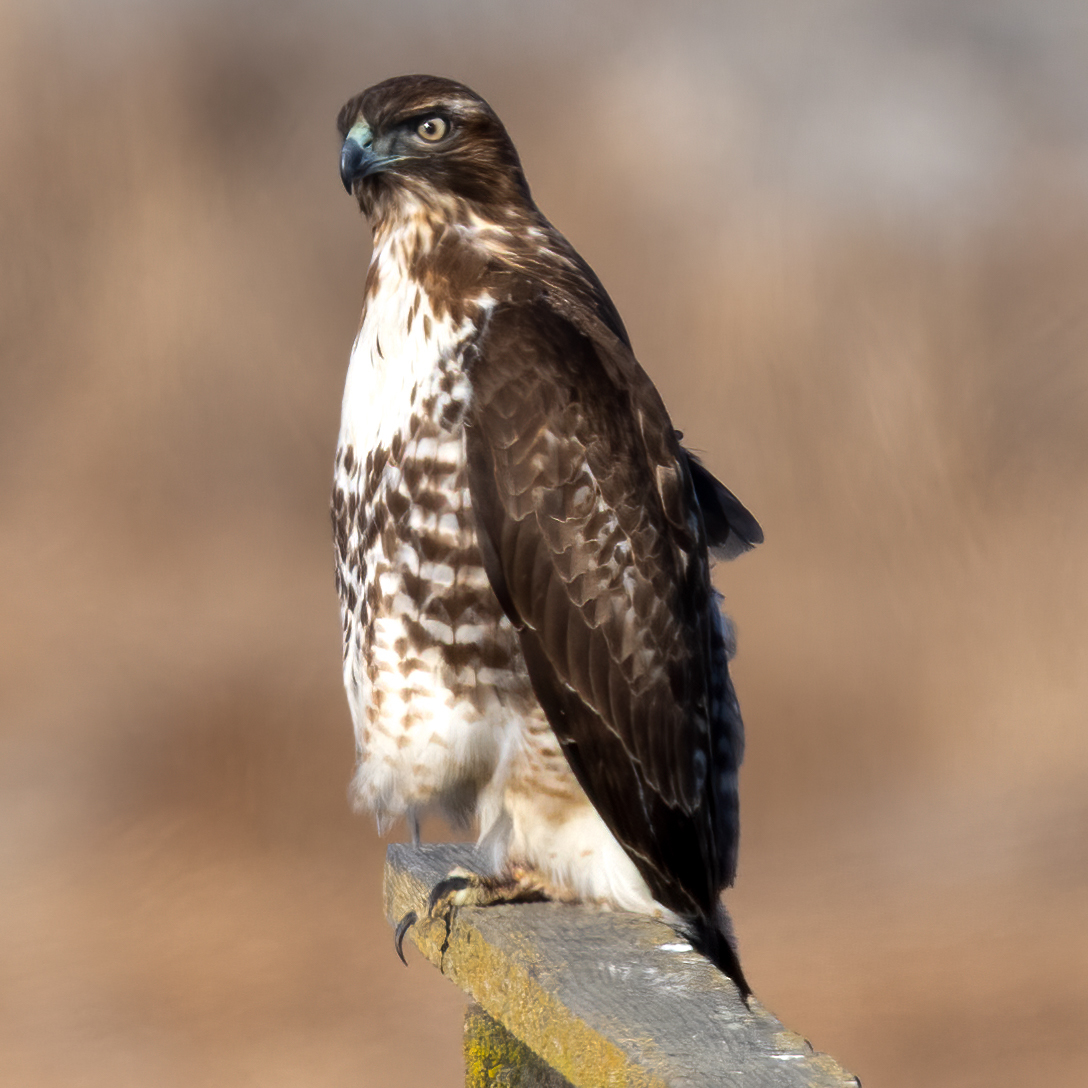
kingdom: Animalia
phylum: Chordata
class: Aves
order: Accipitriformes
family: Accipitridae
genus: Buteo
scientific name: Buteo jamaicensis
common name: Red-tailed hawk
